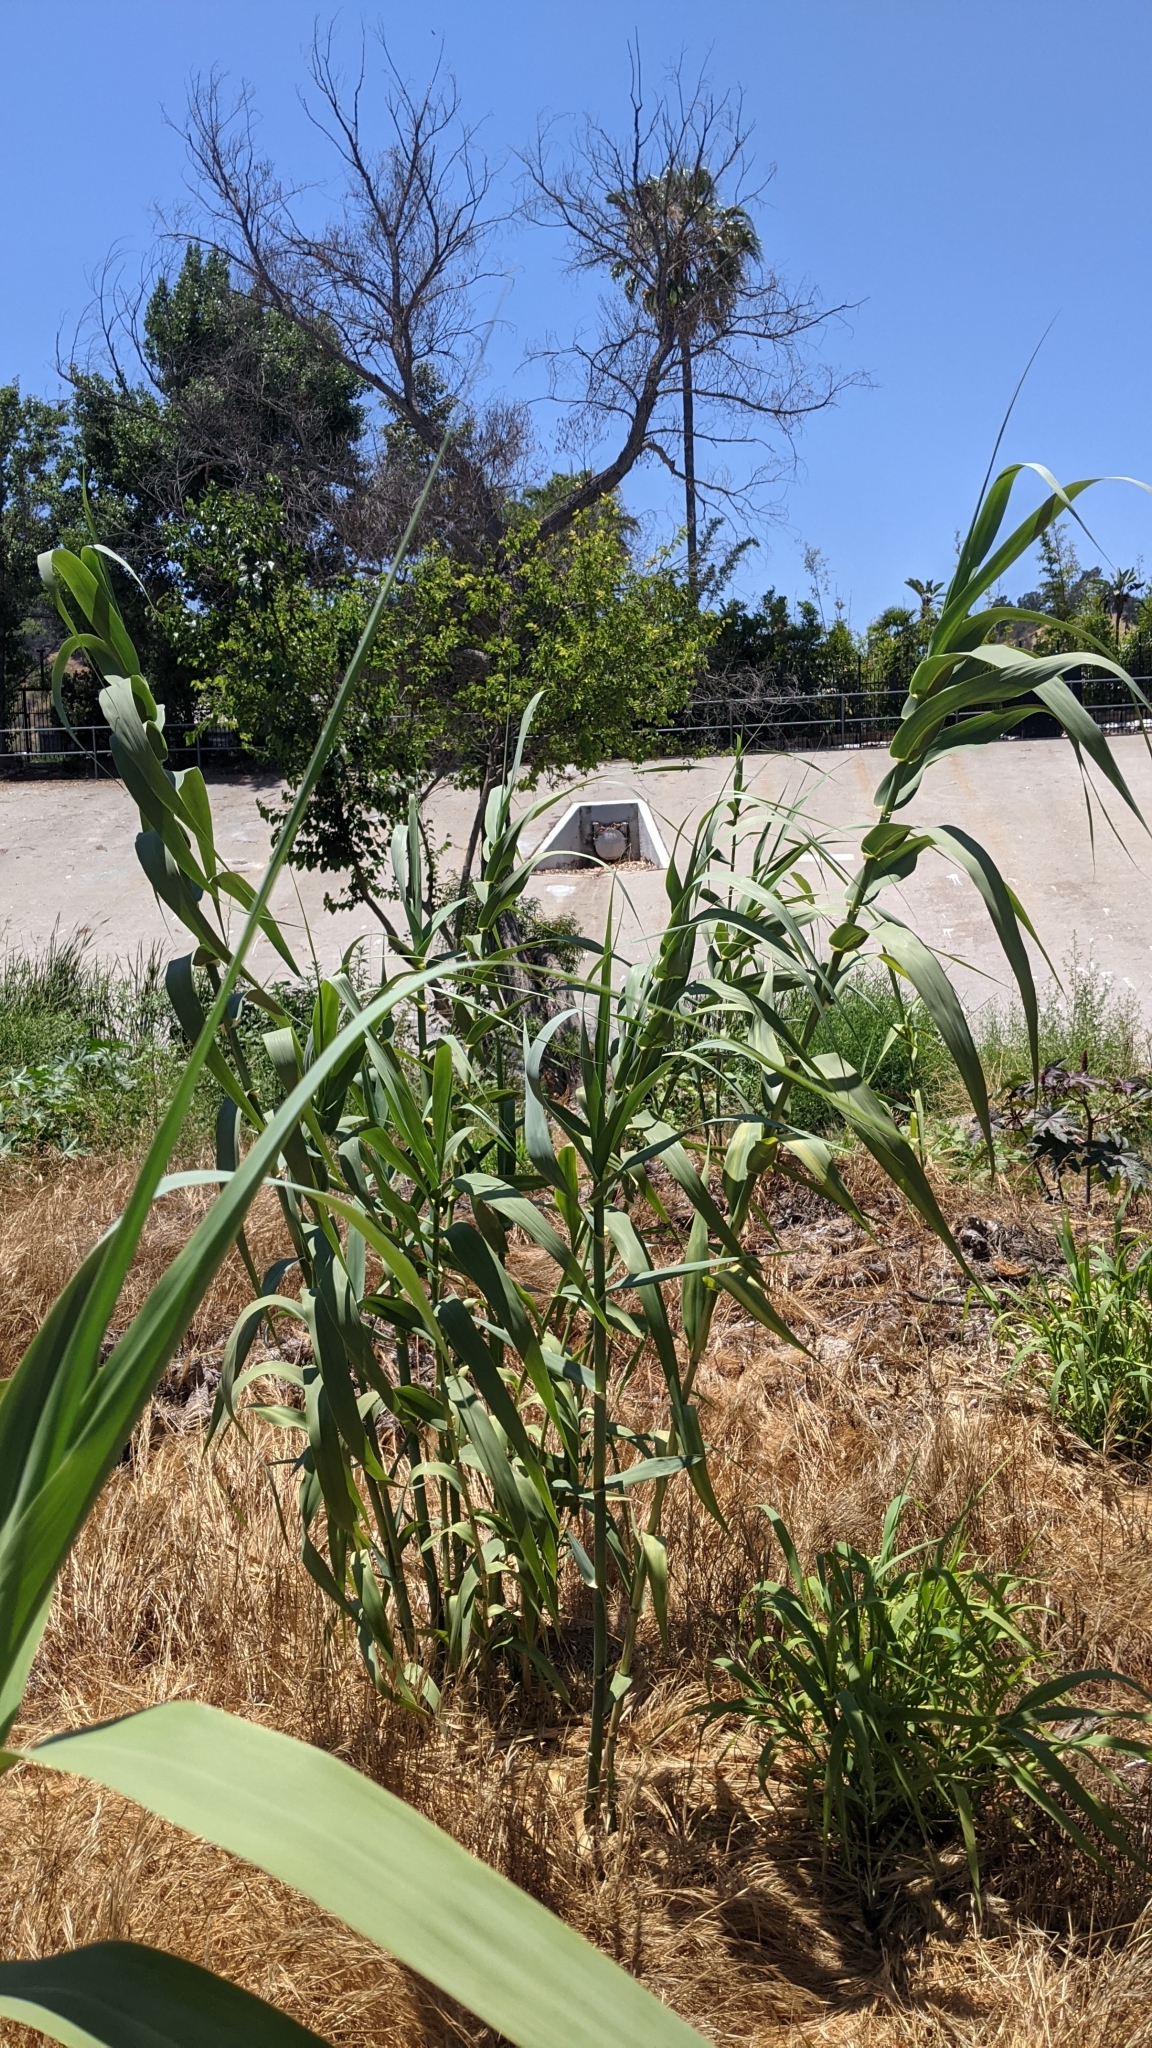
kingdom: Plantae
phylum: Tracheophyta
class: Liliopsida
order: Poales
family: Poaceae
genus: Arundo
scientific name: Arundo donax
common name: Giant reed
